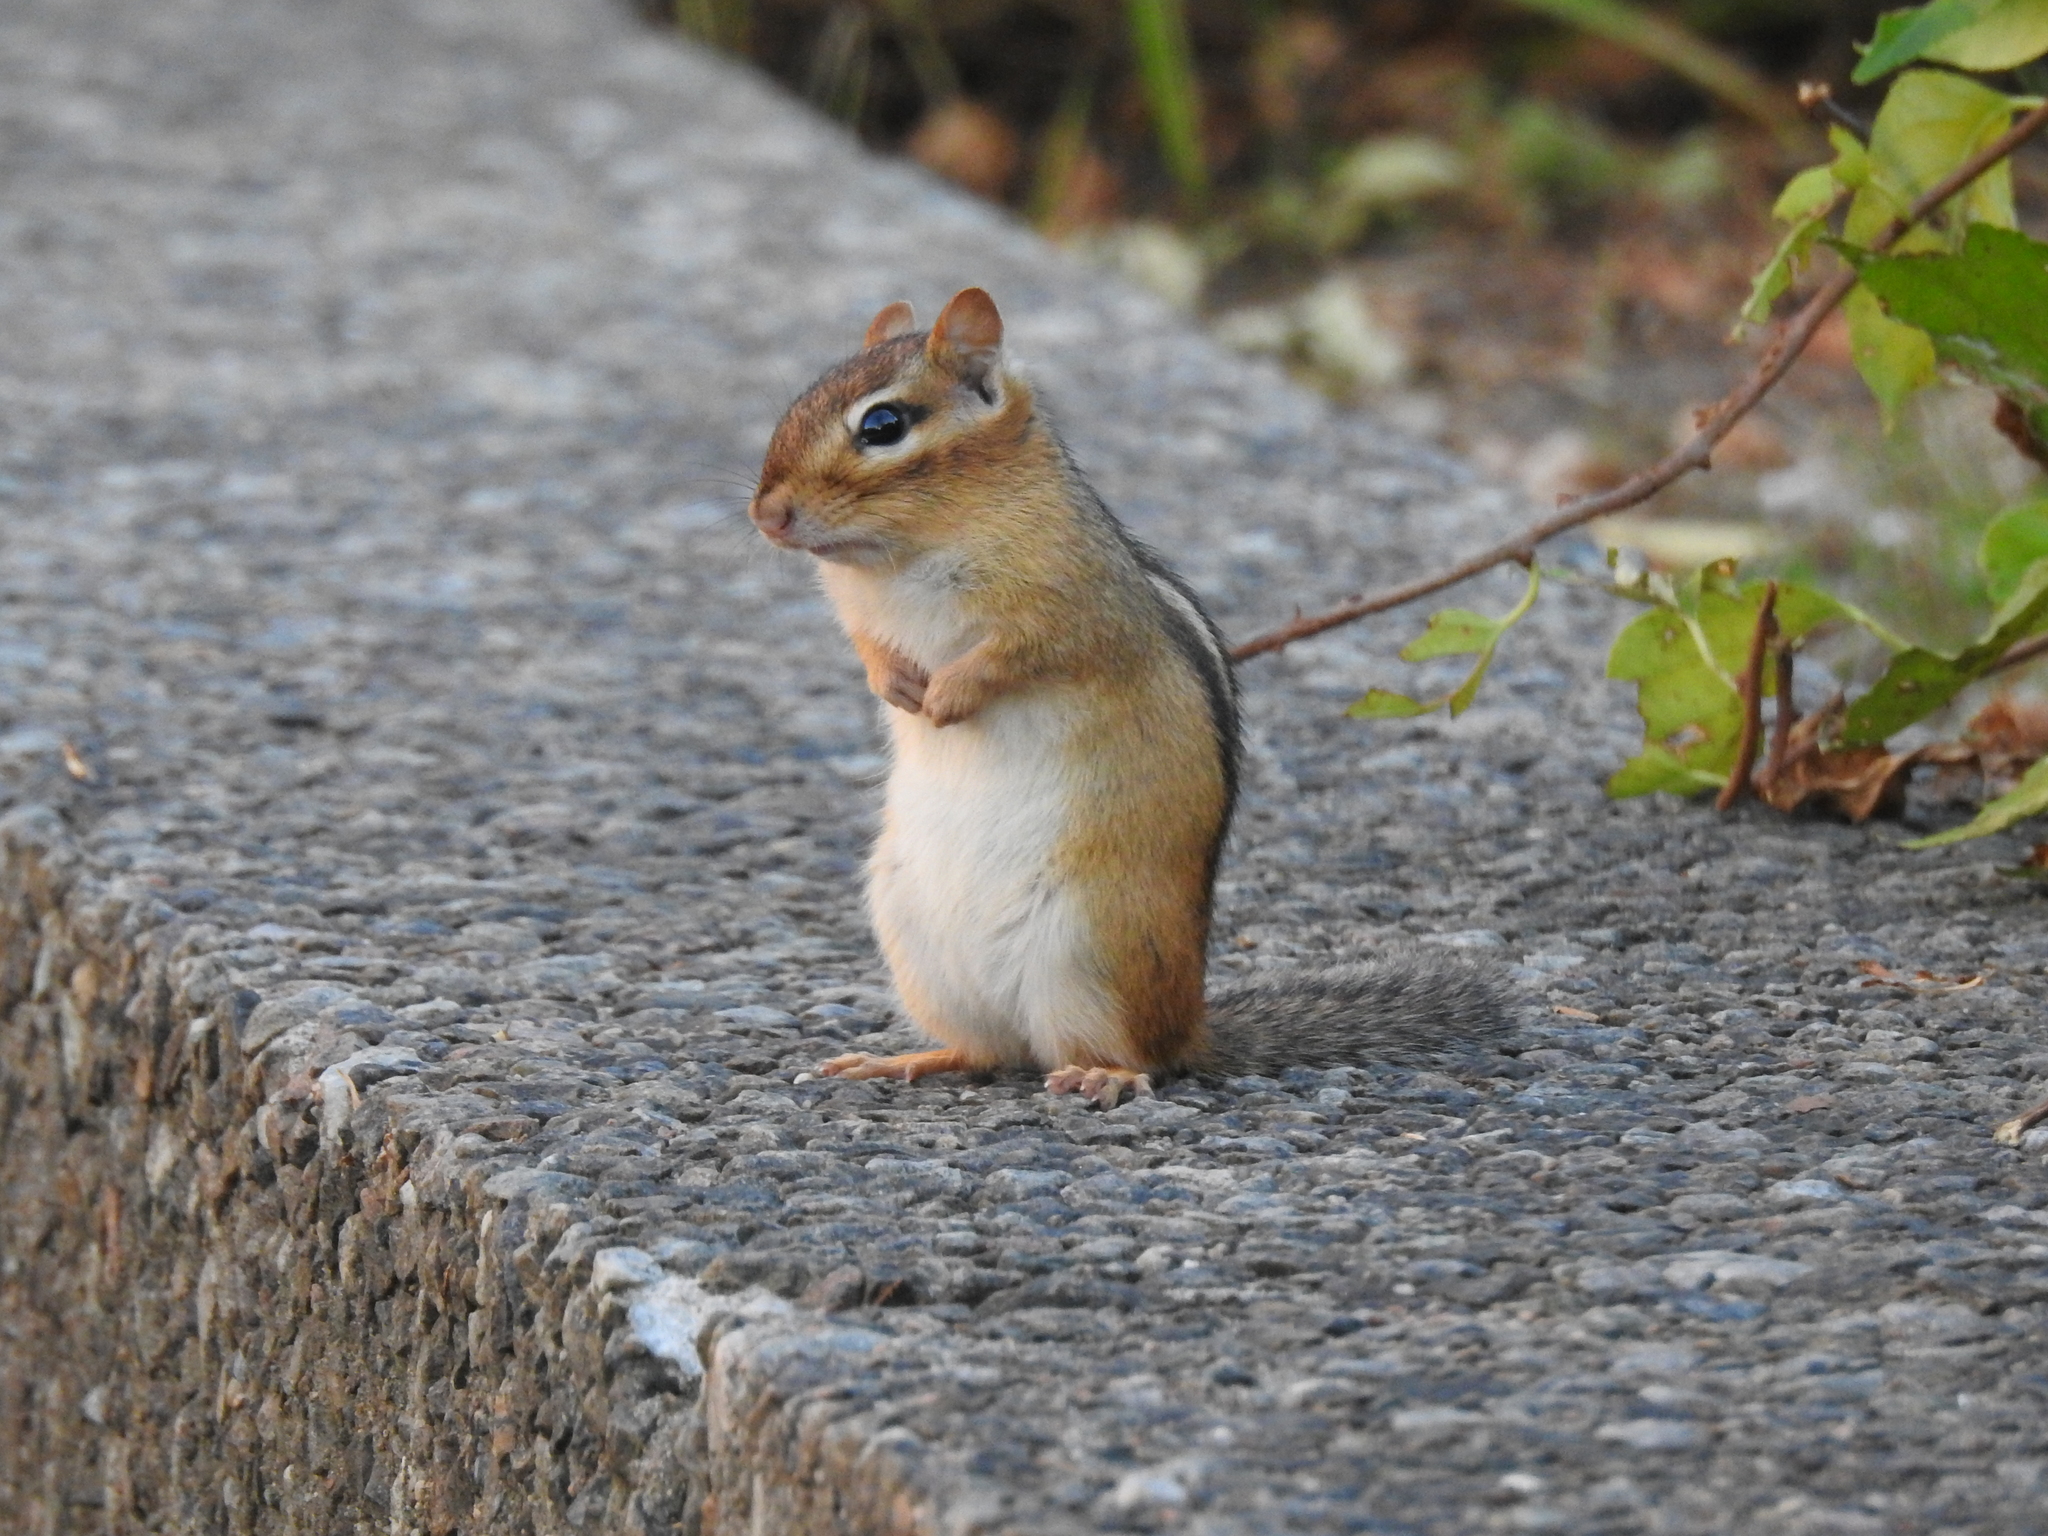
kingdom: Animalia
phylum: Chordata
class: Mammalia
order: Rodentia
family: Sciuridae
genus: Tamias
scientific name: Tamias striatus
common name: Eastern chipmunk
